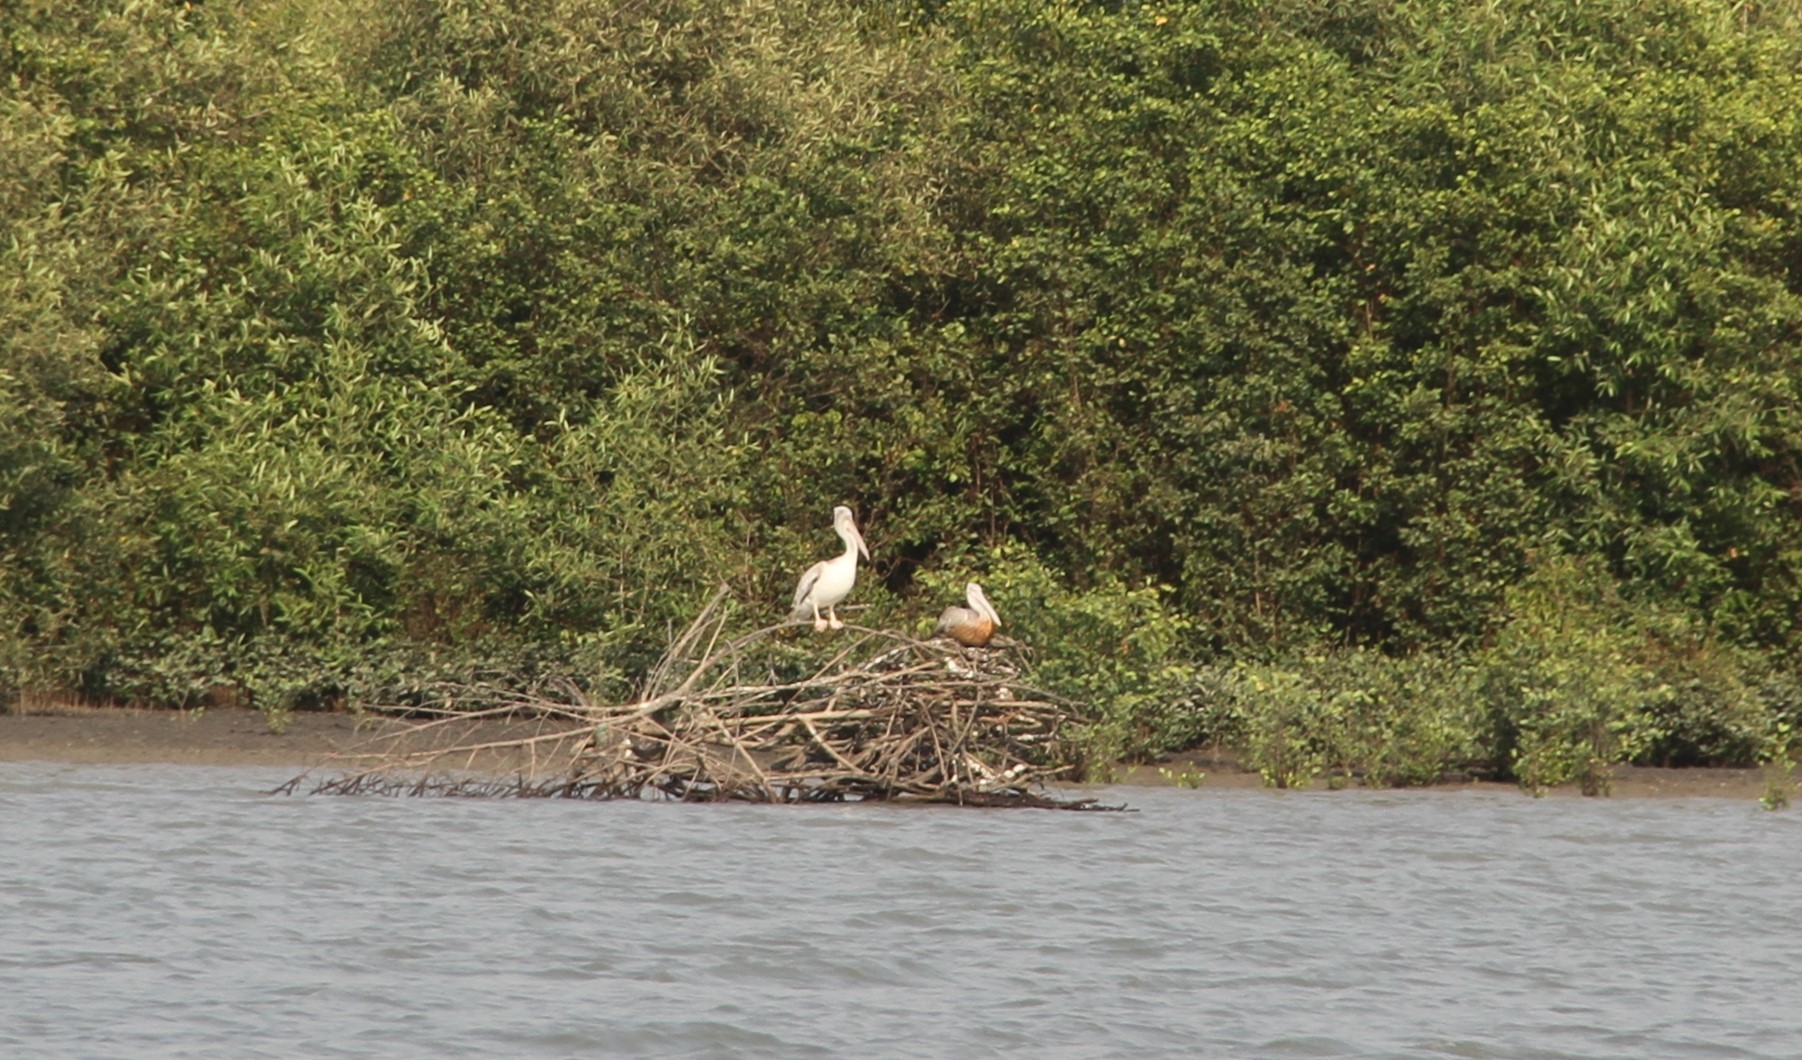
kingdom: Animalia
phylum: Chordata
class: Aves
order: Pelecaniformes
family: Pelecanidae
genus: Pelecanus
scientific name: Pelecanus rufescens
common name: Pink-backed pelican
